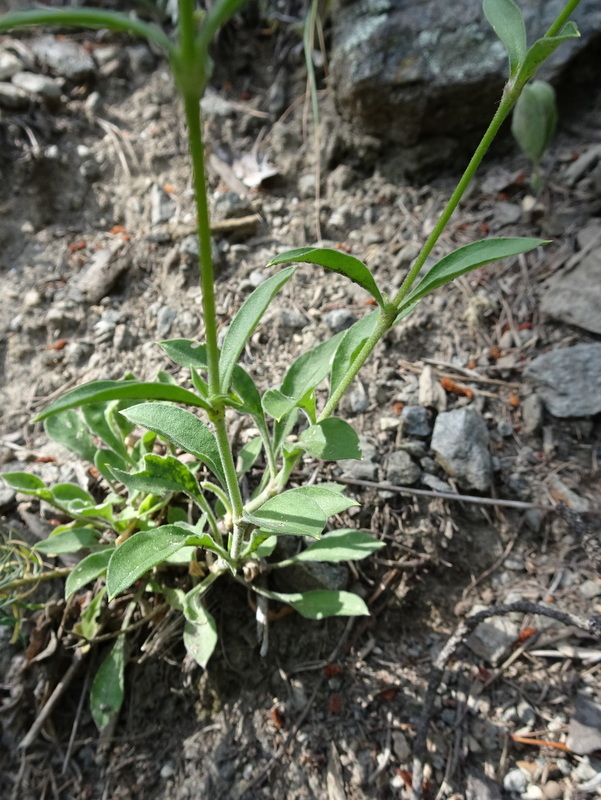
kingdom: Plantae
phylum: Tracheophyta
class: Magnoliopsida
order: Caryophyllales
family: Caryophyllaceae
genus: Silene
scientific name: Silene nutans
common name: Nottingham catchfly
